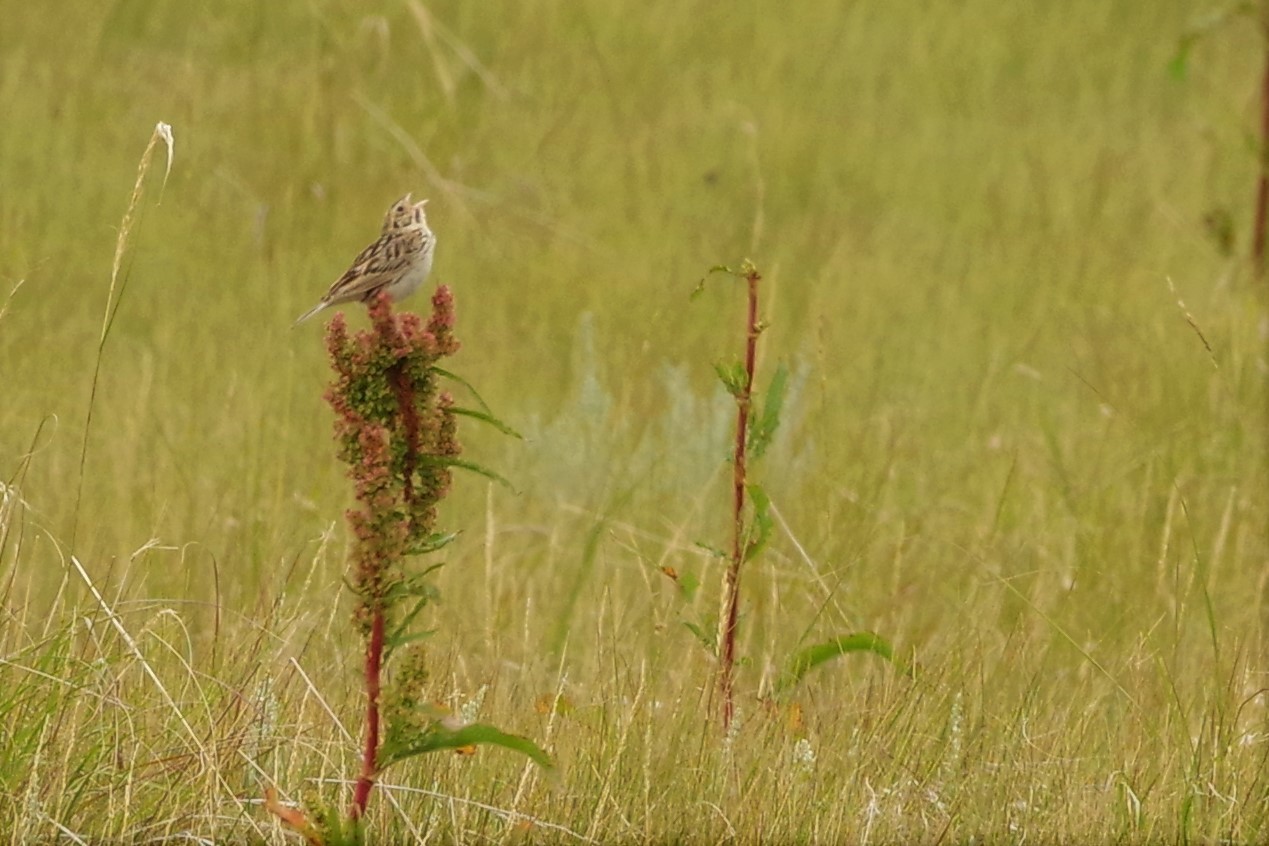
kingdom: Animalia
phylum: Chordata
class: Aves
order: Passeriformes
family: Passerellidae
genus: Centronyx
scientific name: Centronyx bairdii
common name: Baird's sparrow
